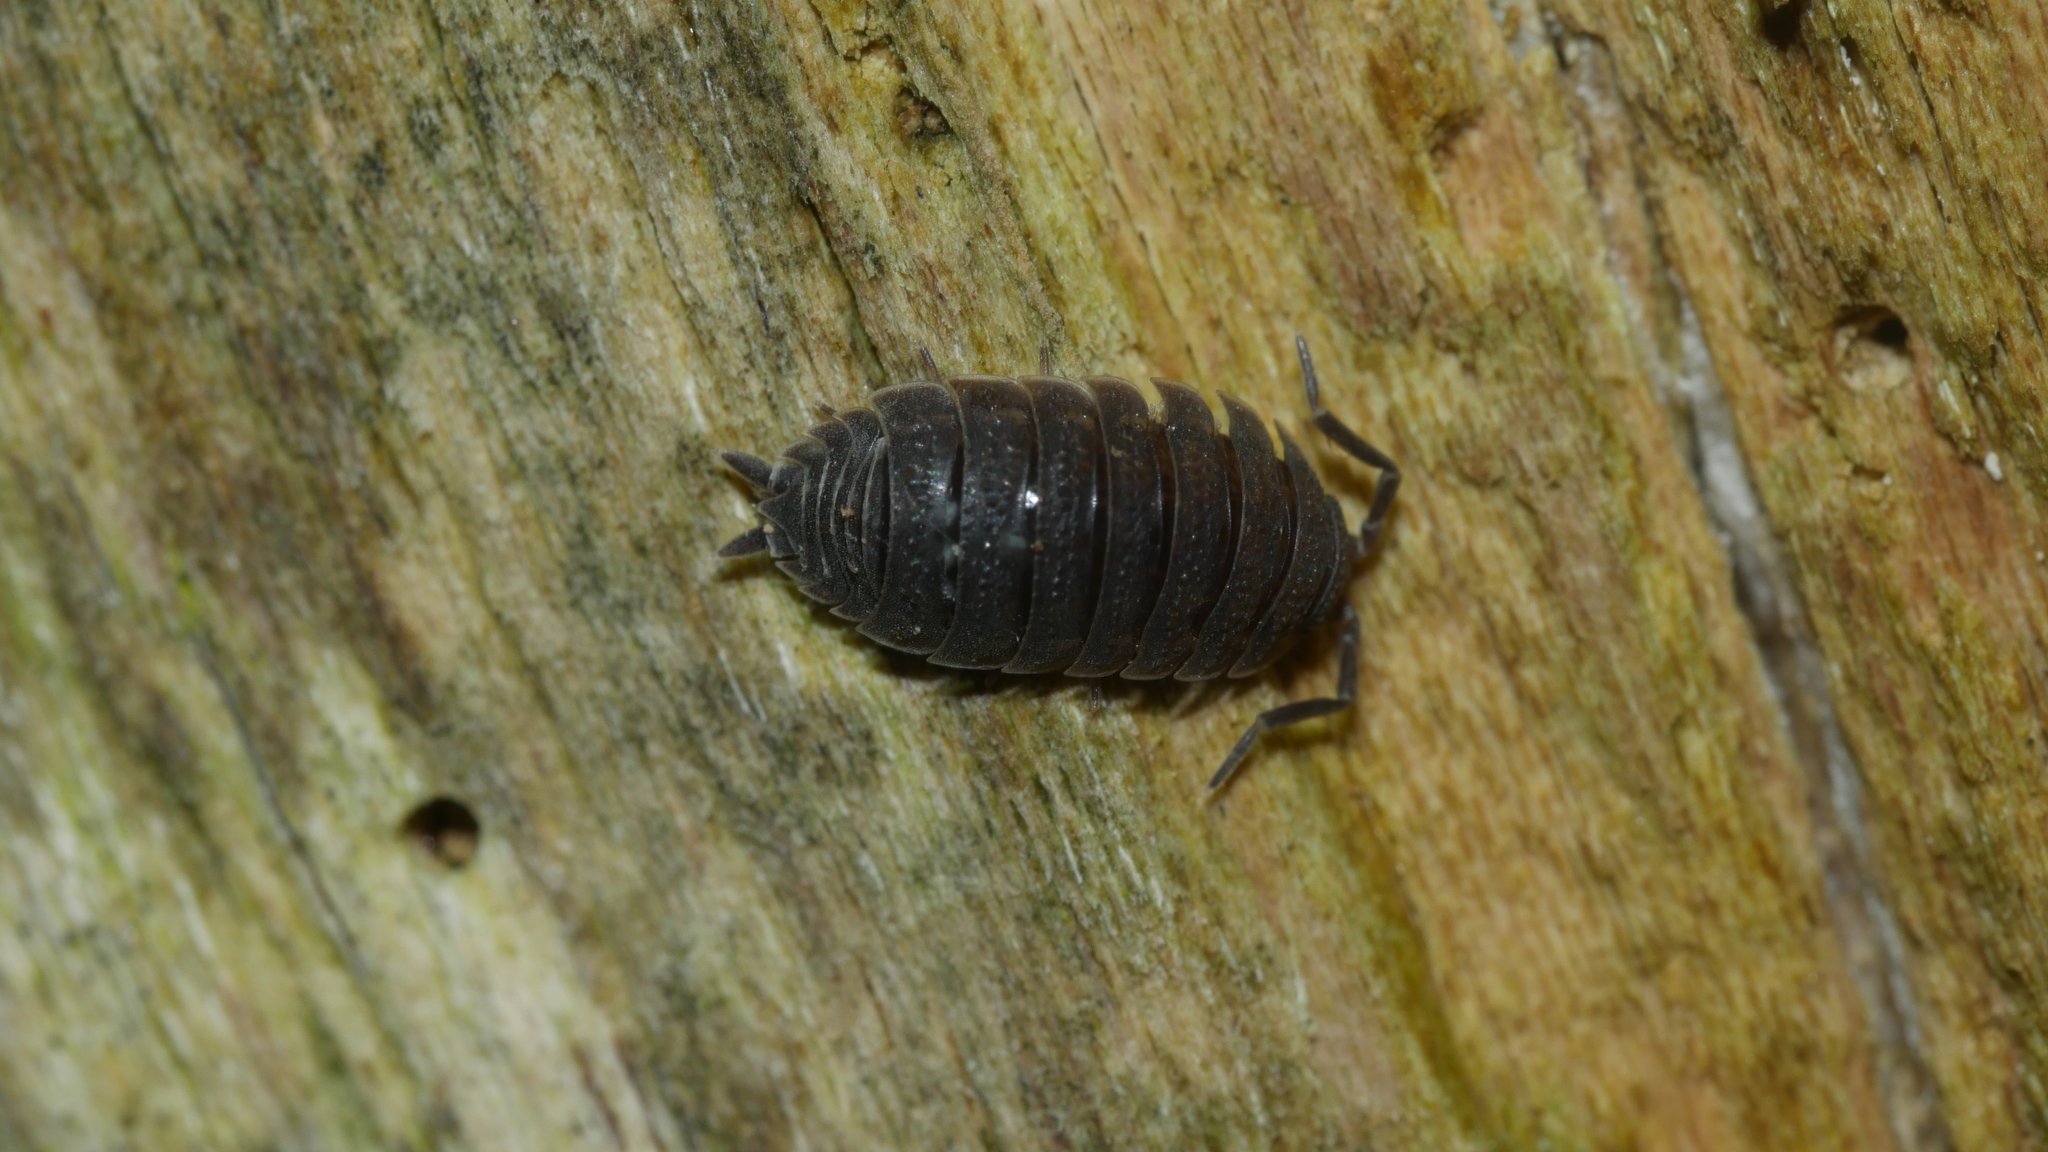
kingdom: Animalia
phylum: Arthropoda
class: Malacostraca
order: Isopoda
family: Porcellionidae
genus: Porcellio
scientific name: Porcellio scaber
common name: Common rough woodlouse
